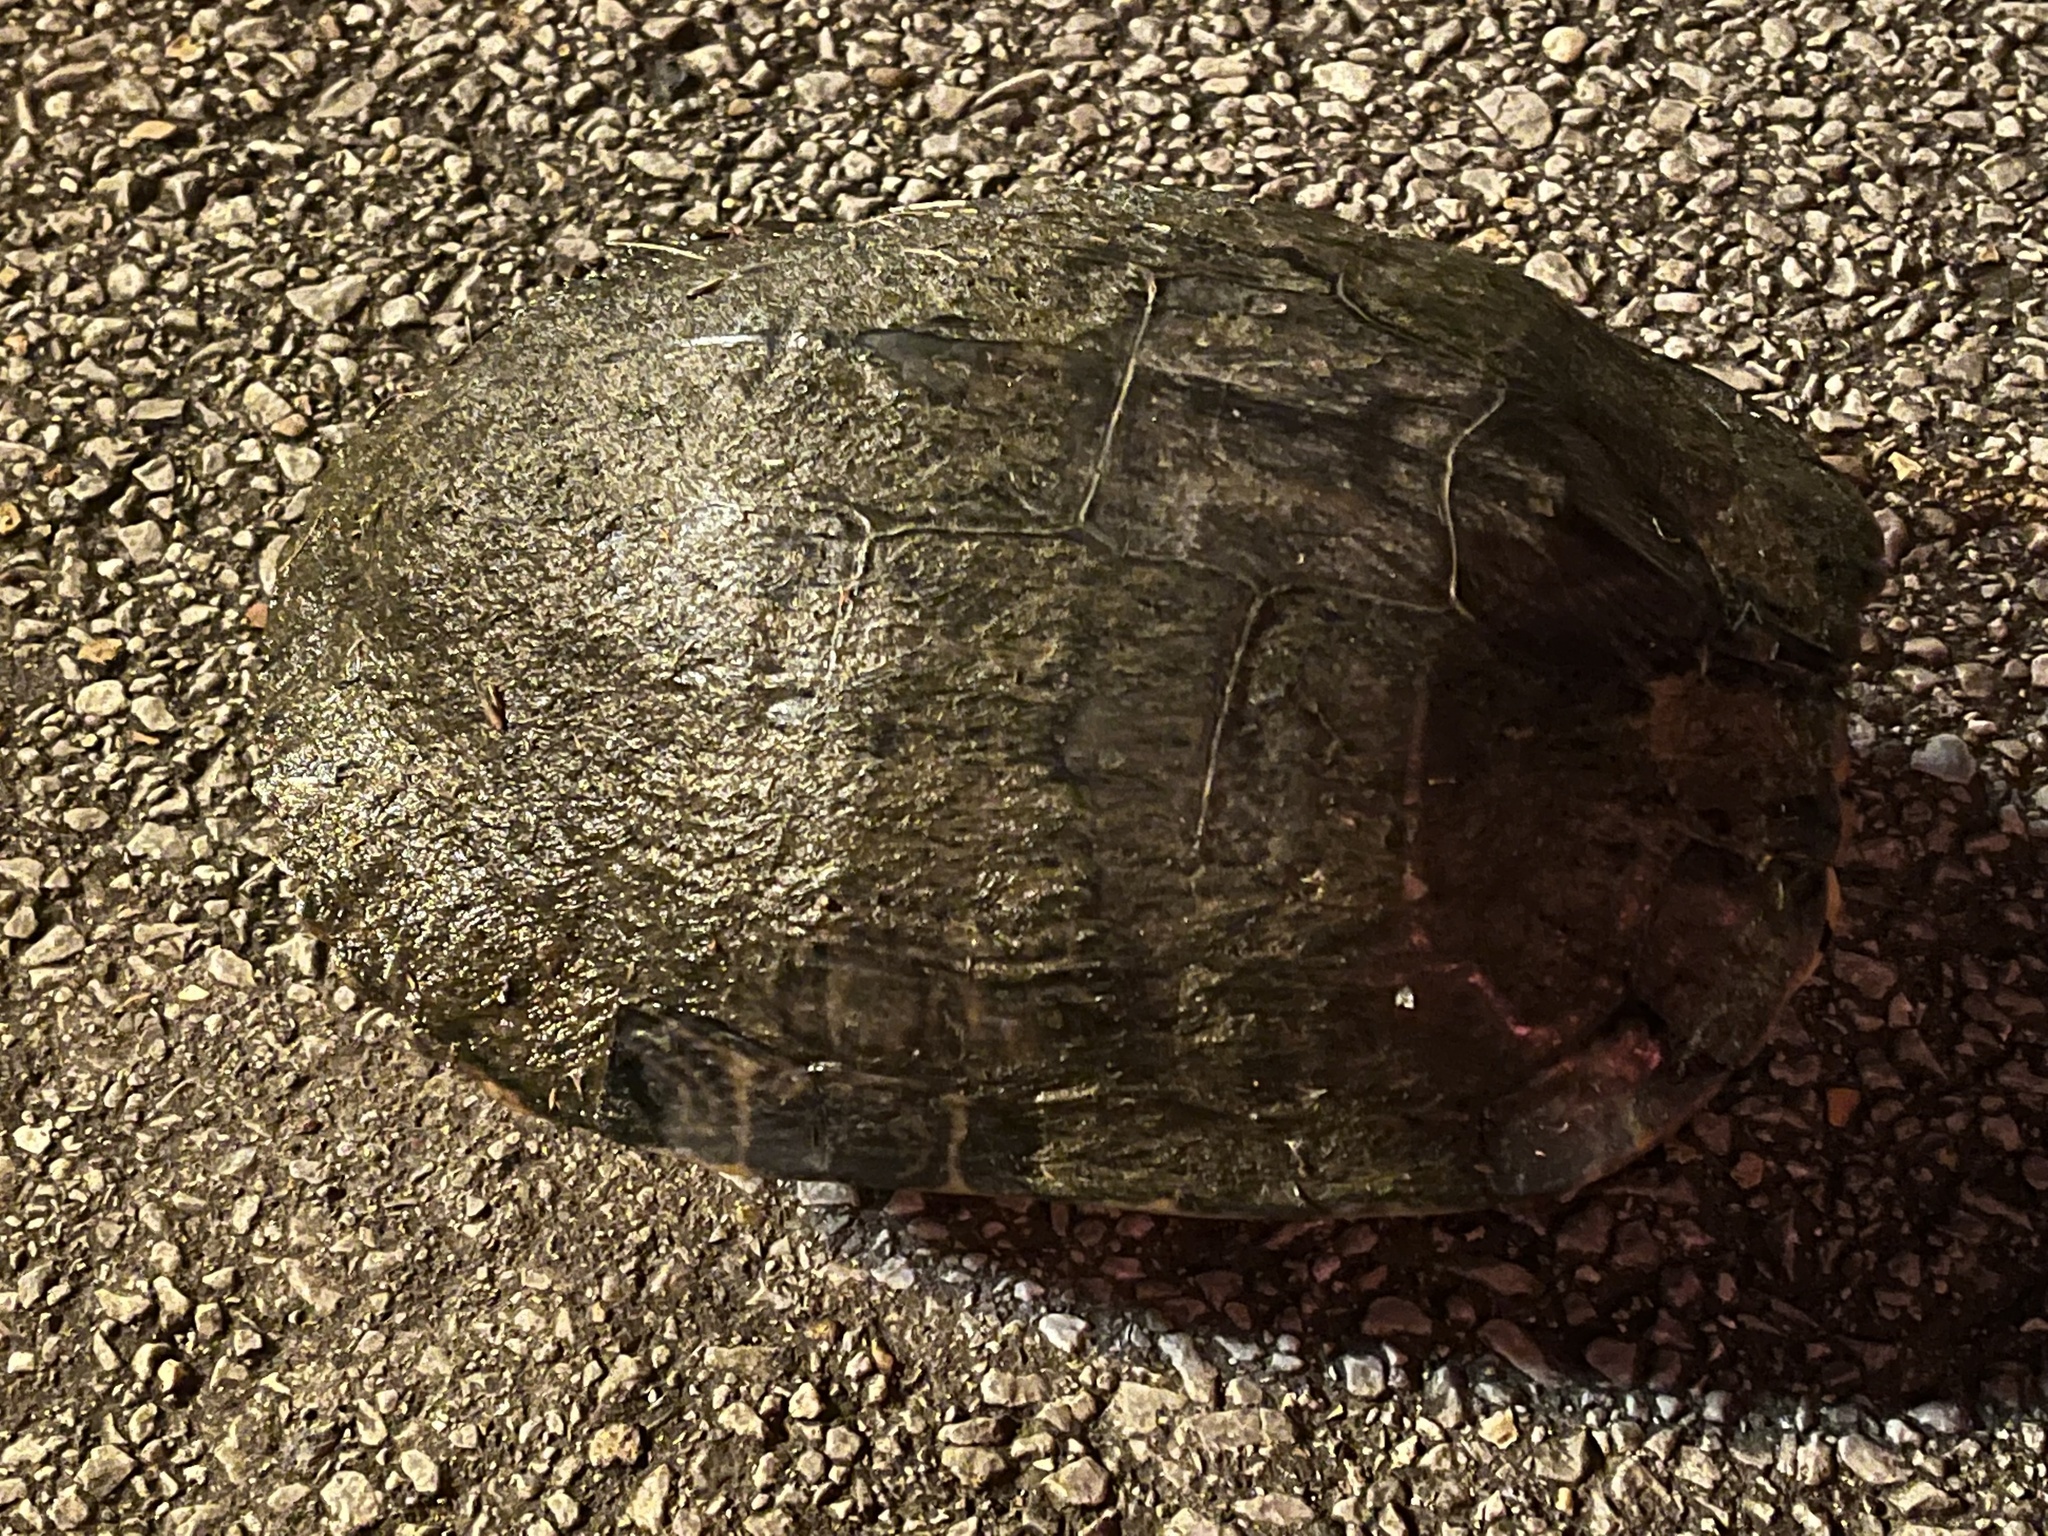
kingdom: Animalia
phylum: Chordata
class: Testudines
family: Emydidae
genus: Trachemys
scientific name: Trachemys scripta
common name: Slider
